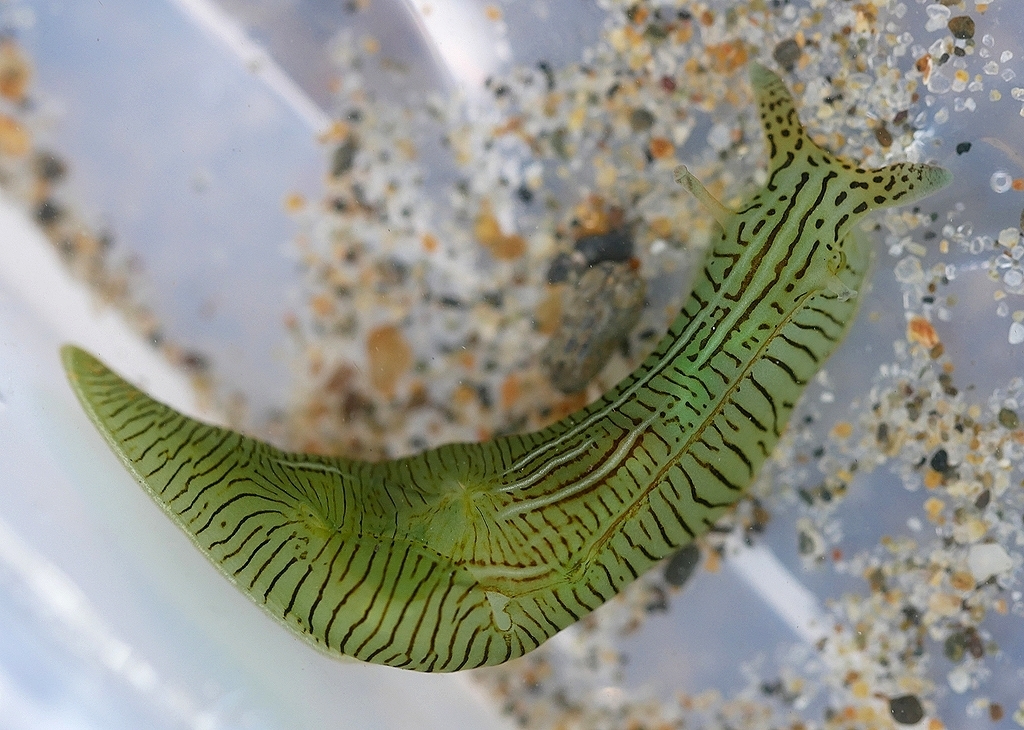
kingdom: Animalia
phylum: Mollusca
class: Gastropoda
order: Aplysiida
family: Aplysiidae
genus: Phyllaplysia
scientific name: Phyllaplysia taylori
